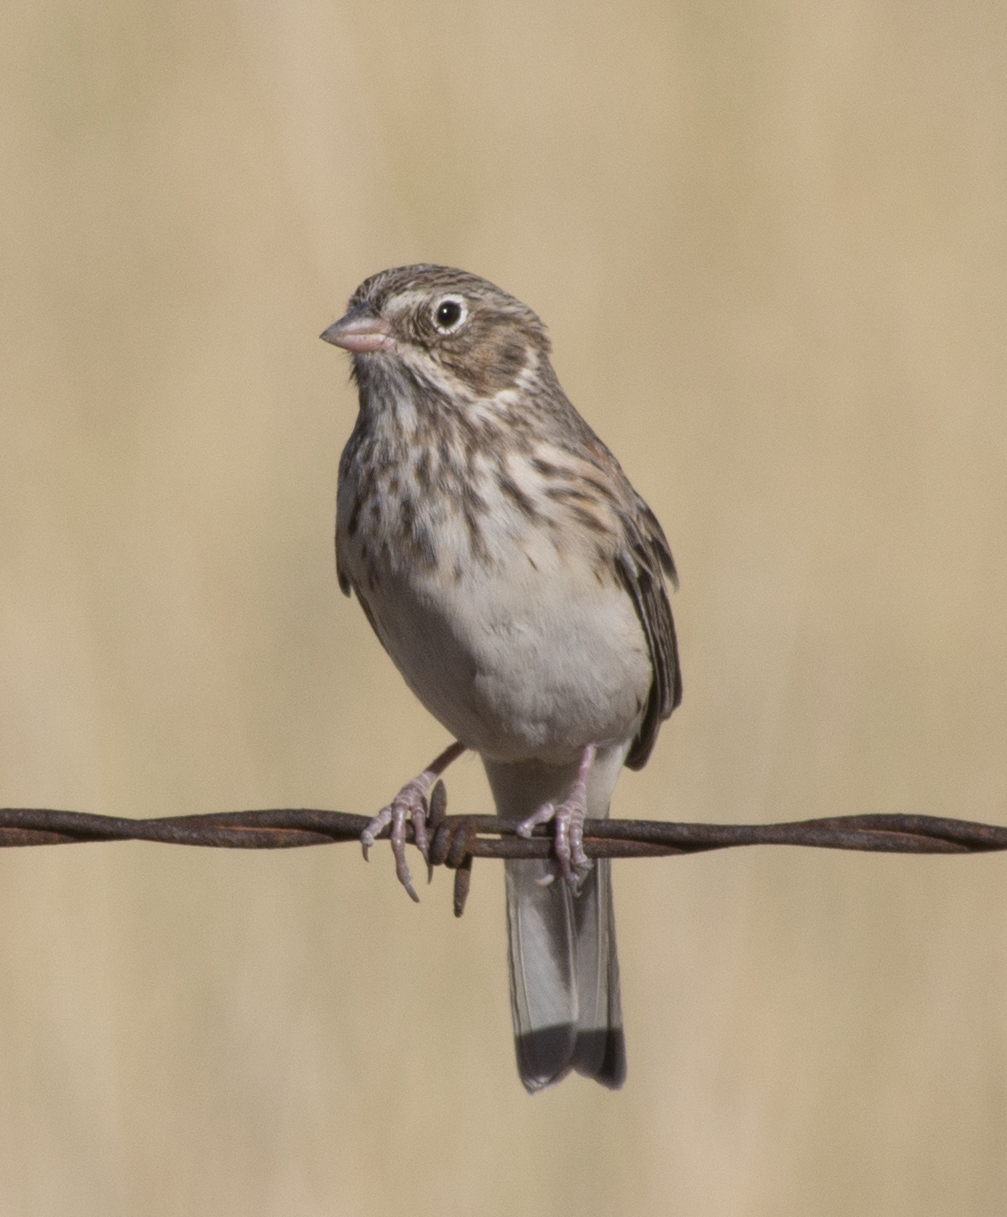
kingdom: Animalia
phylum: Chordata
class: Aves
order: Passeriformes
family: Passerellidae
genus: Pooecetes
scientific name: Pooecetes gramineus
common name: Vesper sparrow
